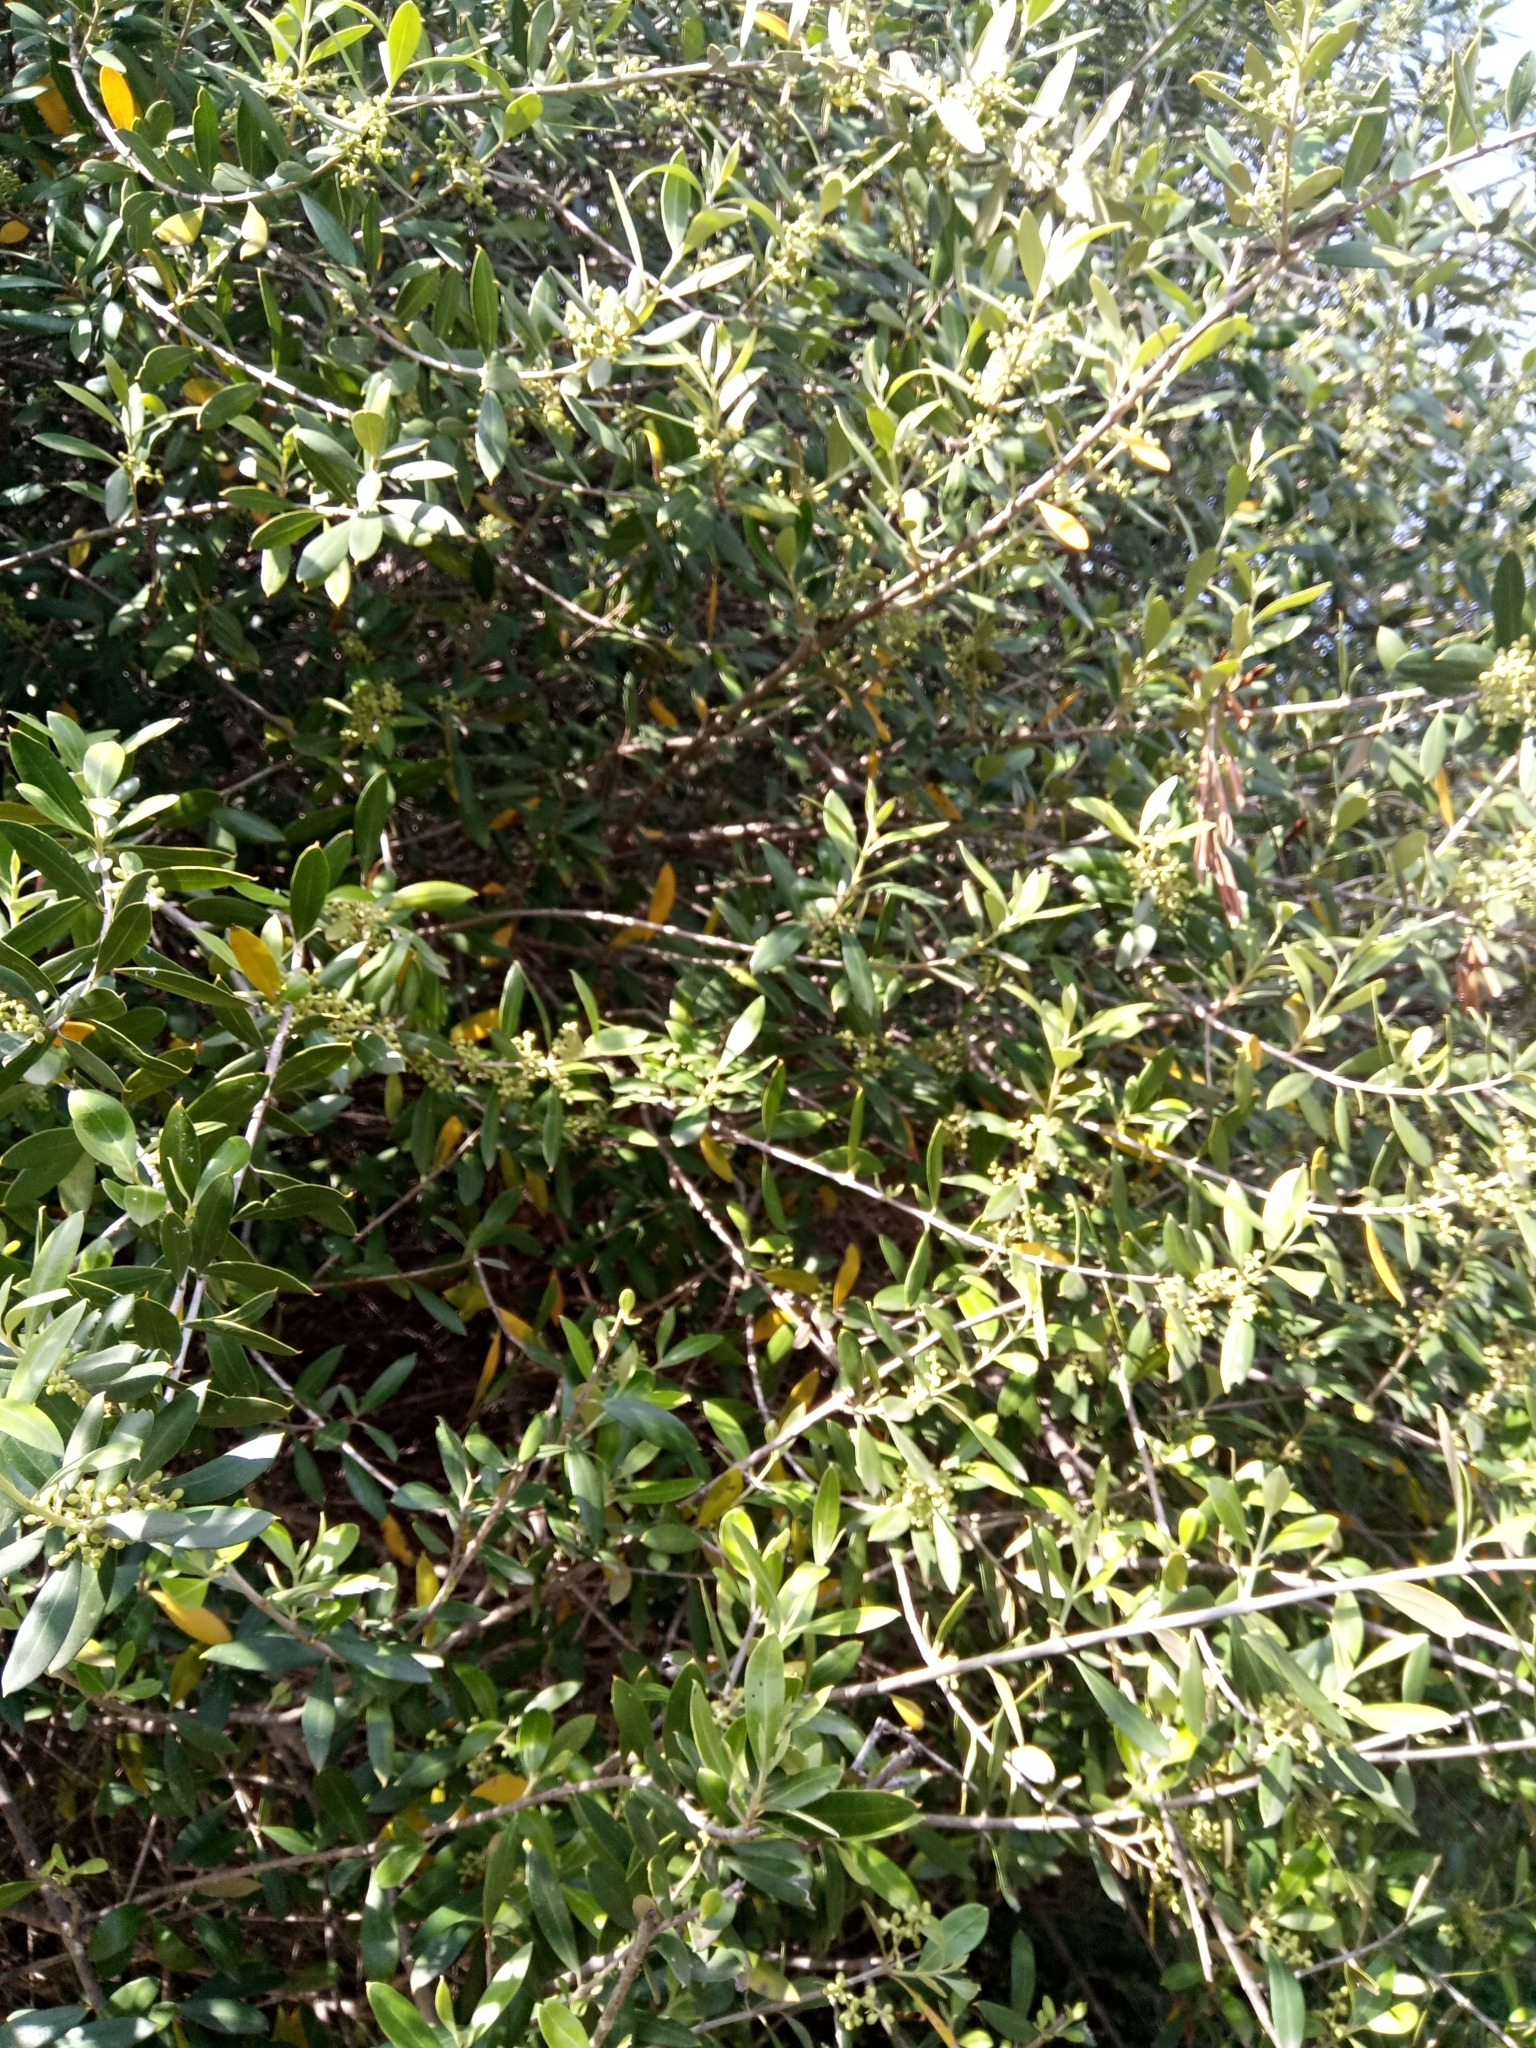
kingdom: Plantae
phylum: Tracheophyta
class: Magnoliopsida
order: Asterales
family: Asteraceae
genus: Scolymus
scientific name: Scolymus grandiflorus
